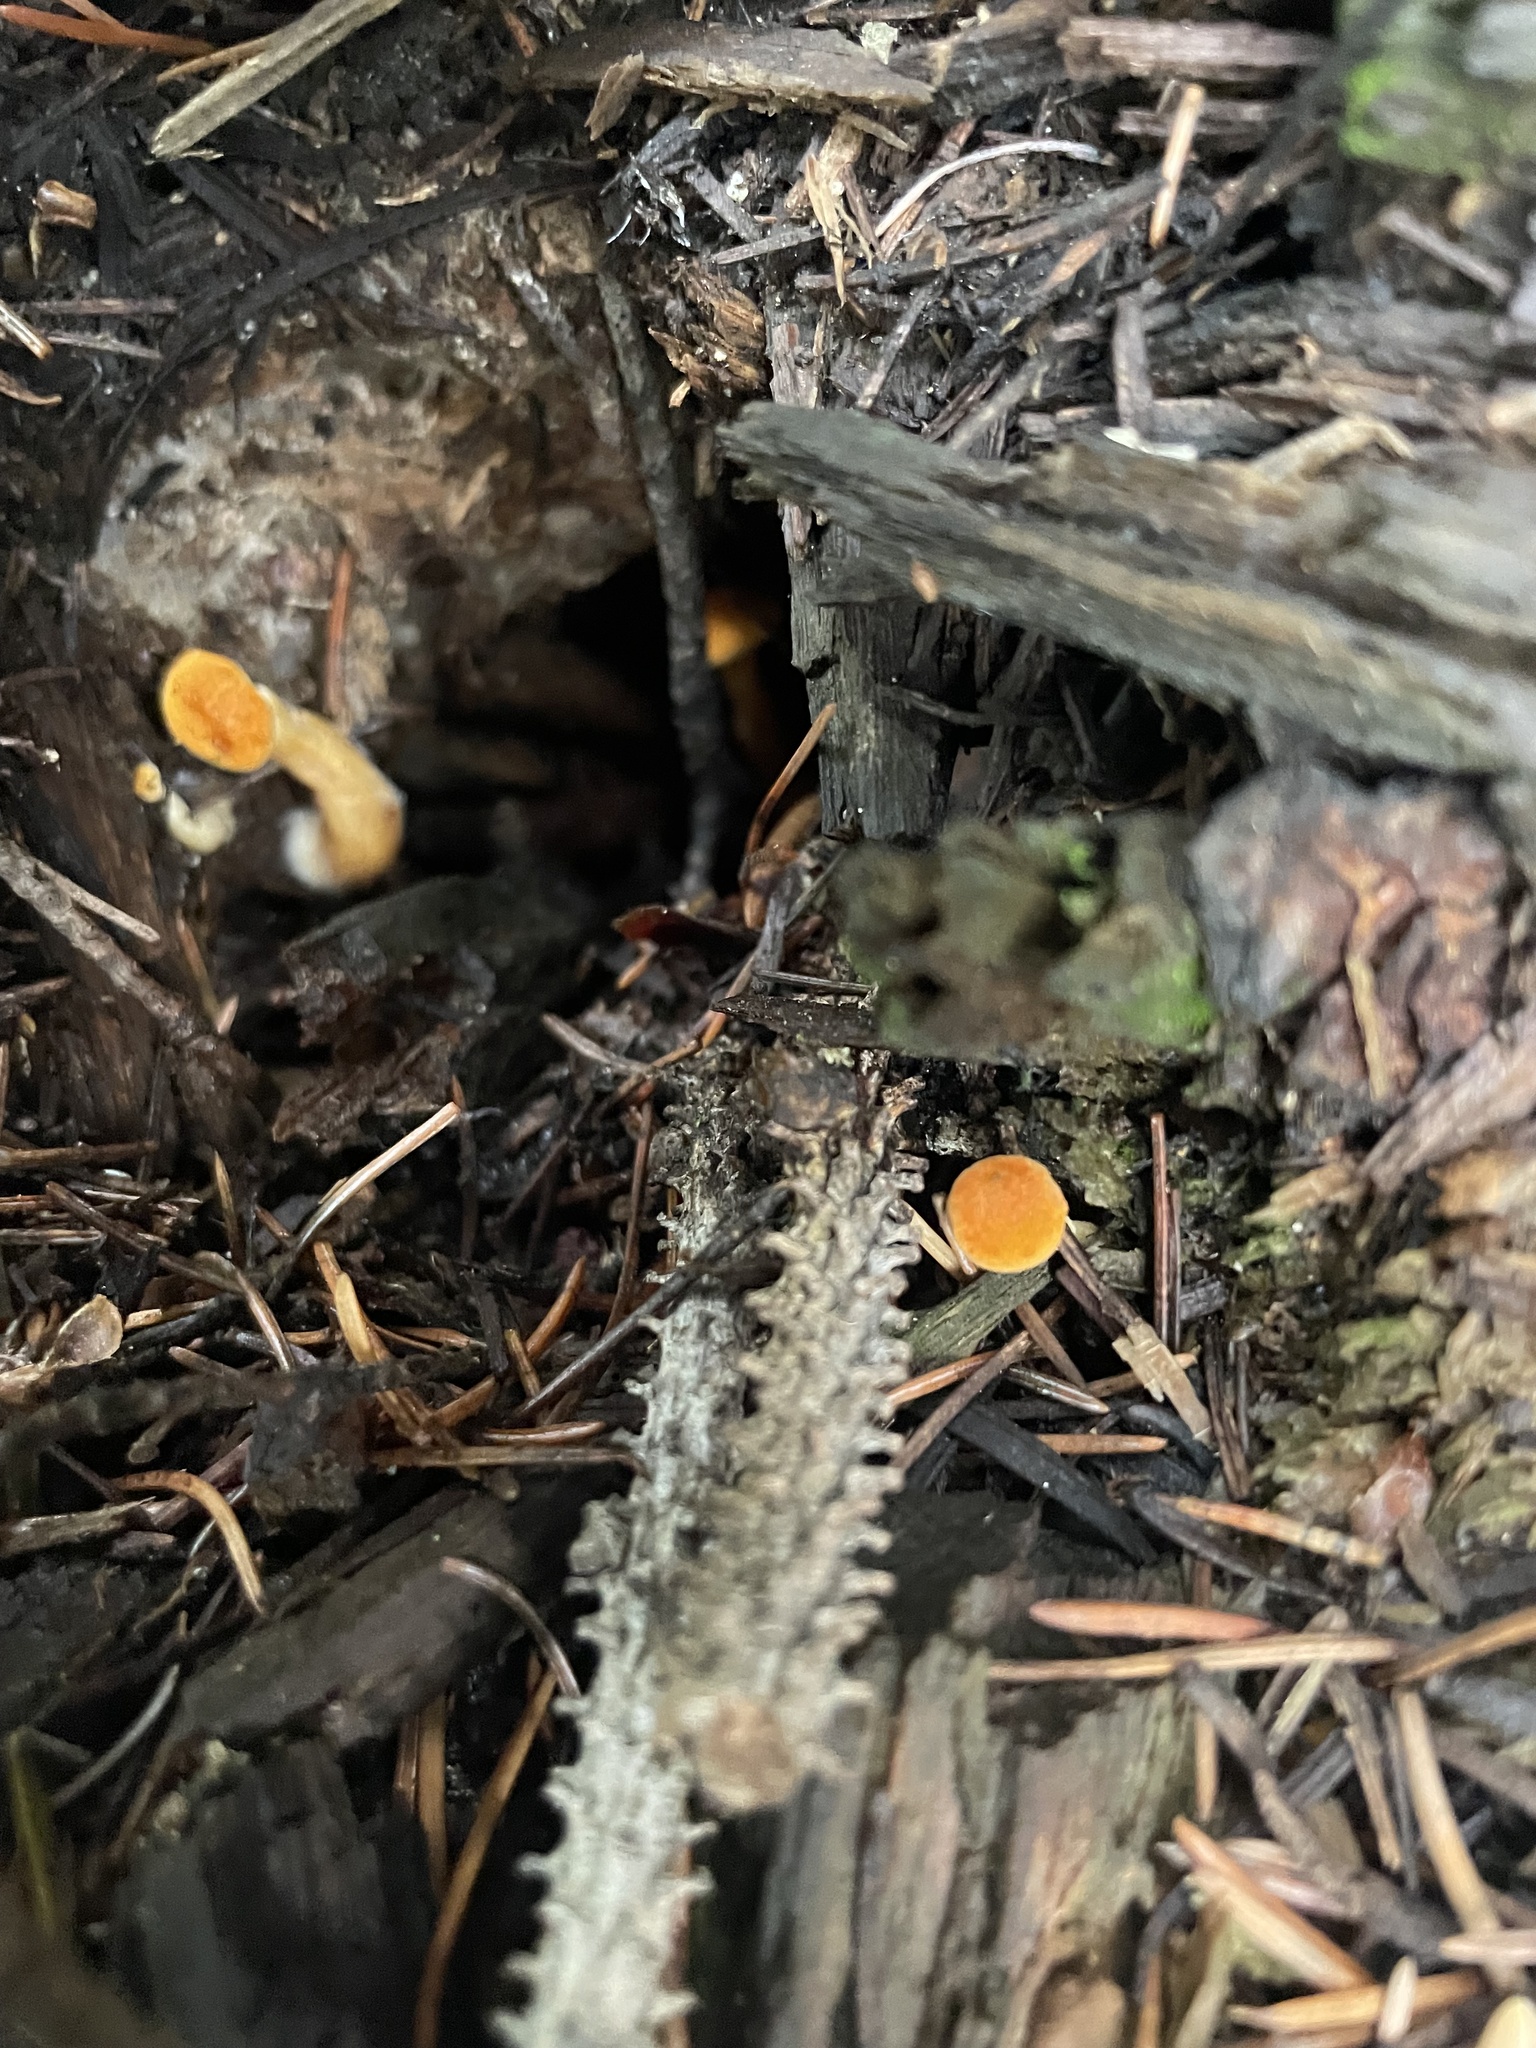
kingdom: Fungi
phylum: Basidiomycota
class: Agaricomycetes
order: Boletales
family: Hygrophoropsidaceae
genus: Hygrophoropsis
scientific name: Hygrophoropsis aurantiaca
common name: False chanterelle
